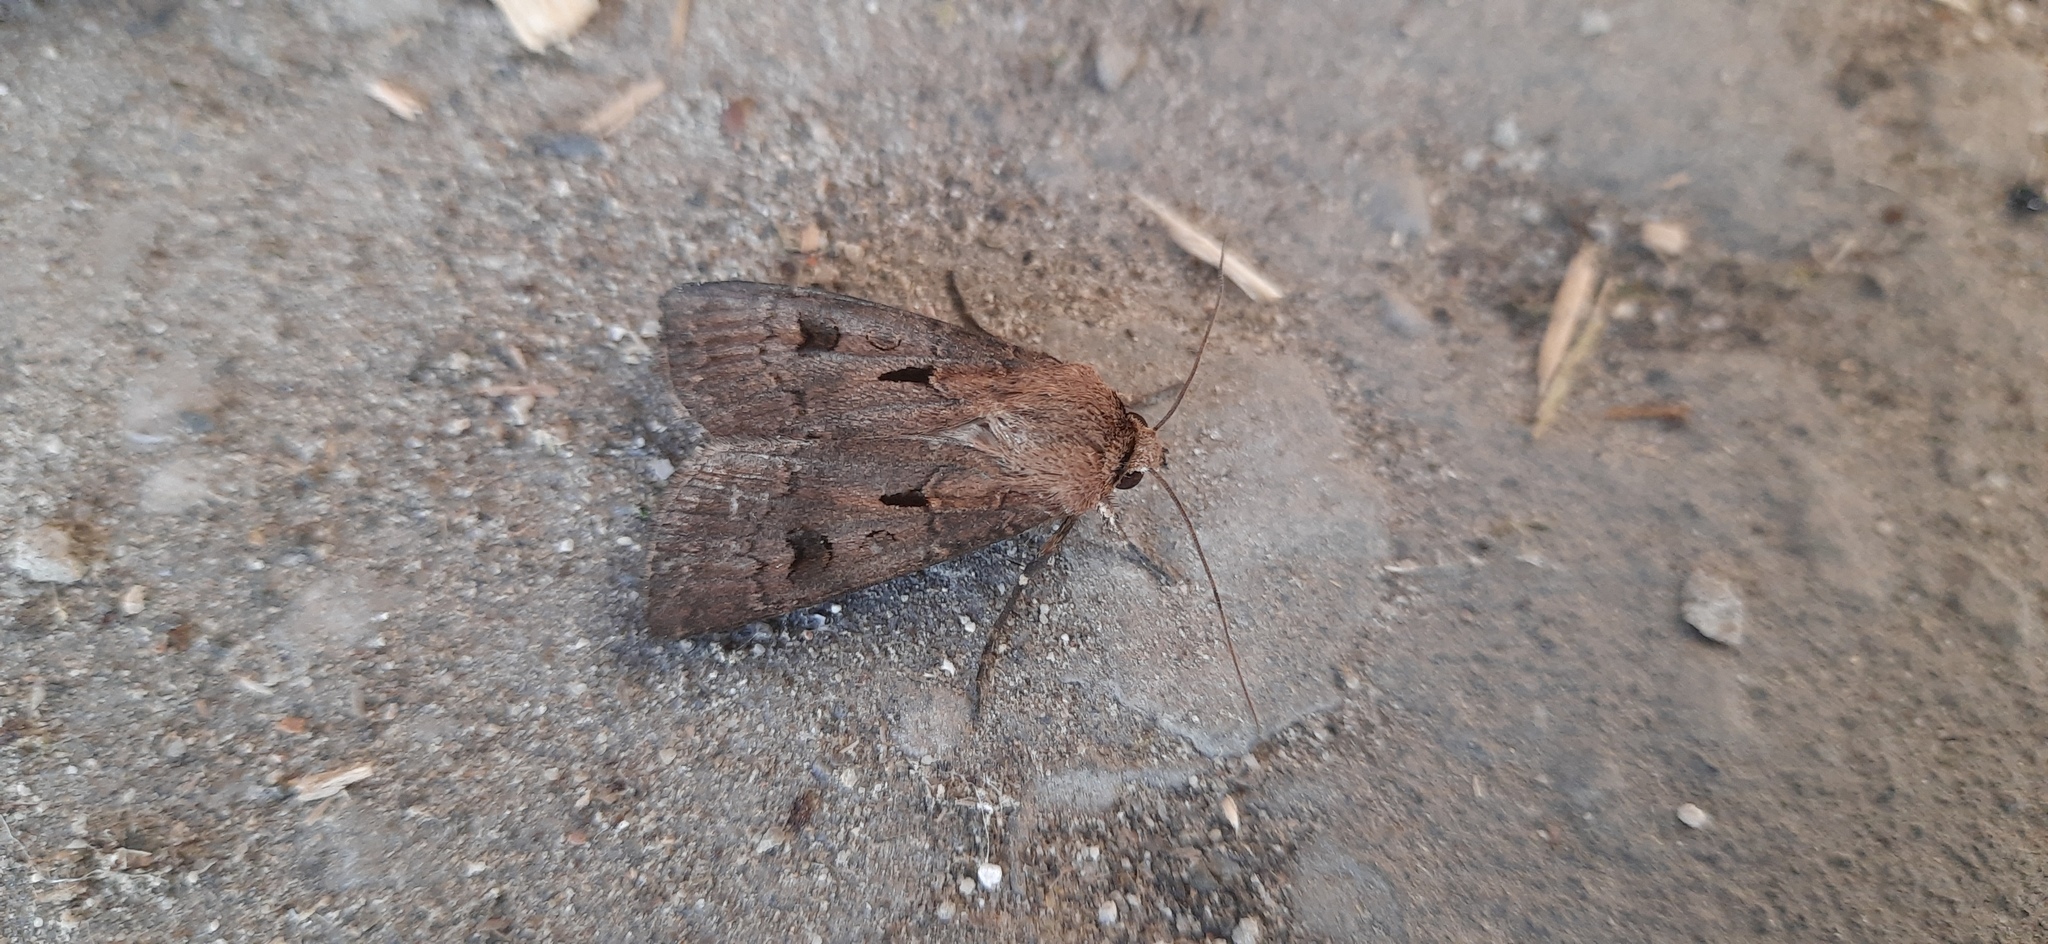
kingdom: Animalia
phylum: Arthropoda
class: Insecta
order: Lepidoptera
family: Noctuidae
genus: Agrotis
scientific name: Agrotis exclamationis
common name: Heart and dart
